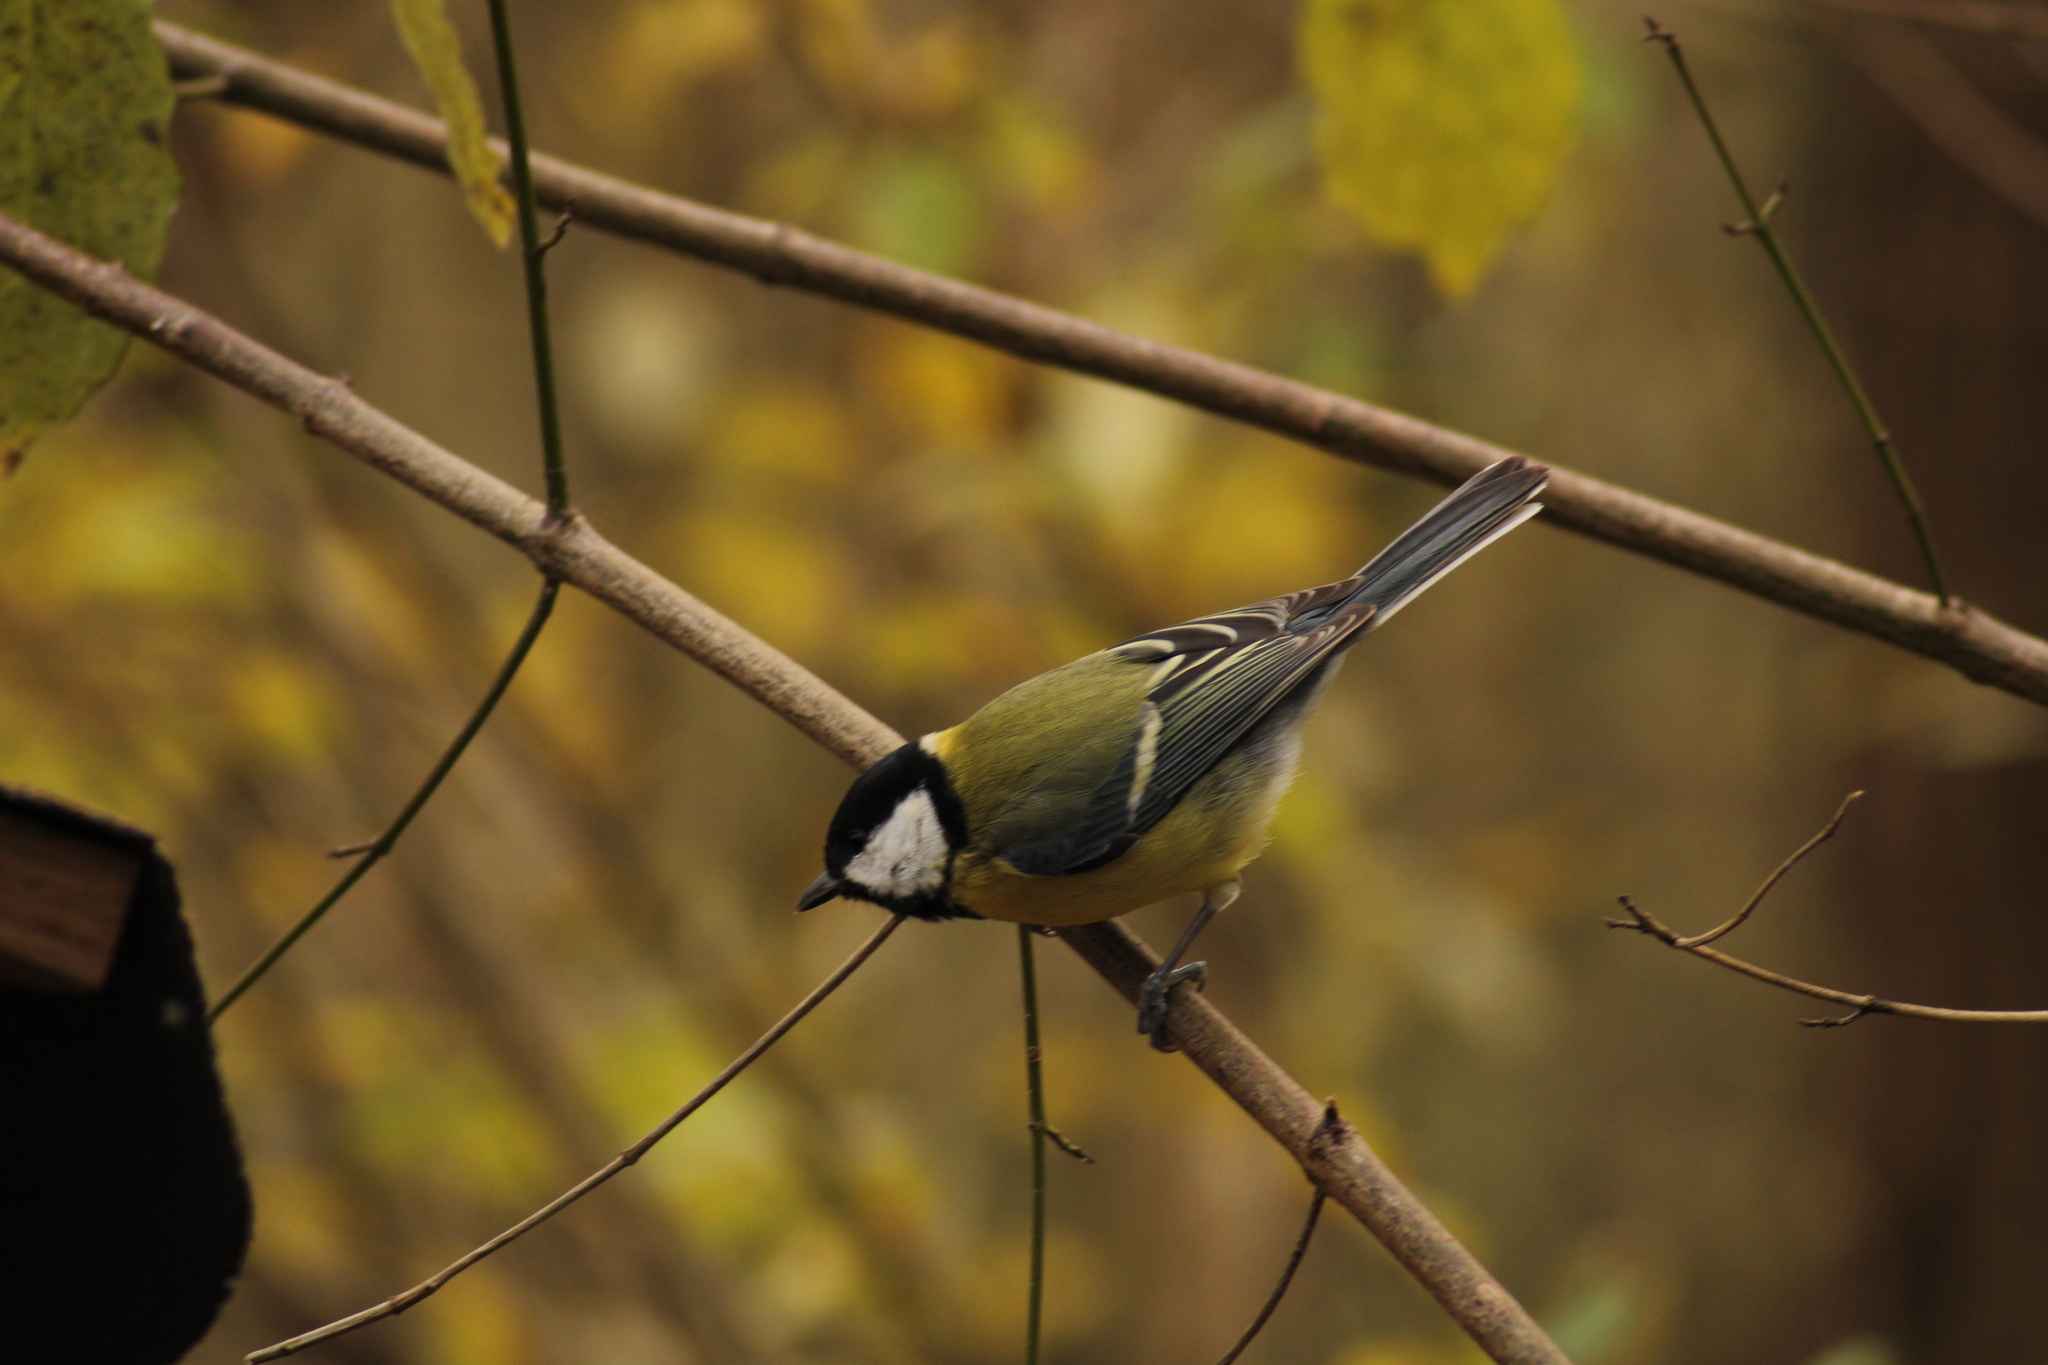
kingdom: Animalia
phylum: Chordata
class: Aves
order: Passeriformes
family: Paridae
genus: Parus
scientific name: Parus major
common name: Great tit
